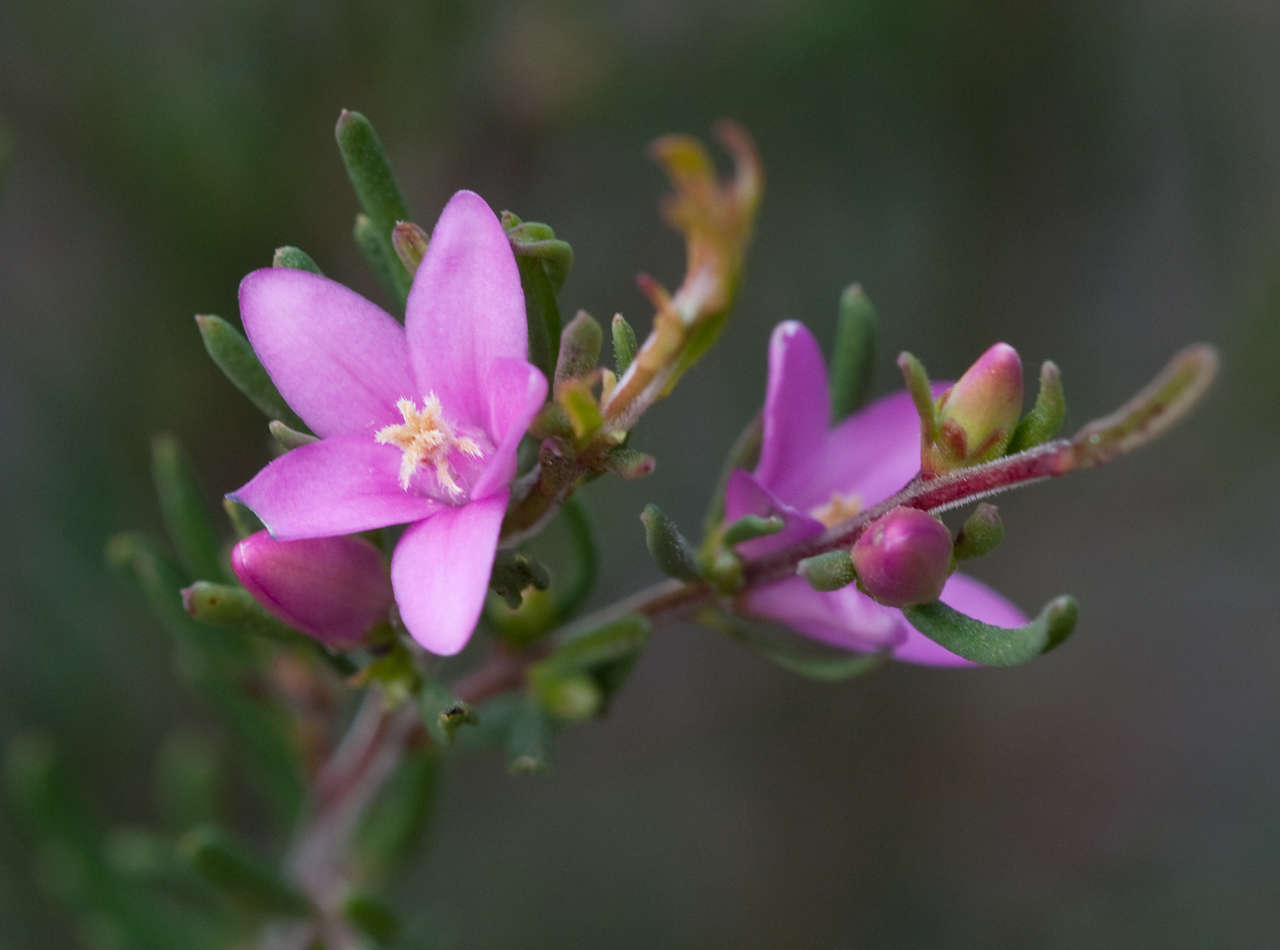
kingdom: Plantae
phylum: Tracheophyta
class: Magnoliopsida
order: Sapindales
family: Rutaceae
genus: Crowea
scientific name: Crowea exalata
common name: Small crowea
